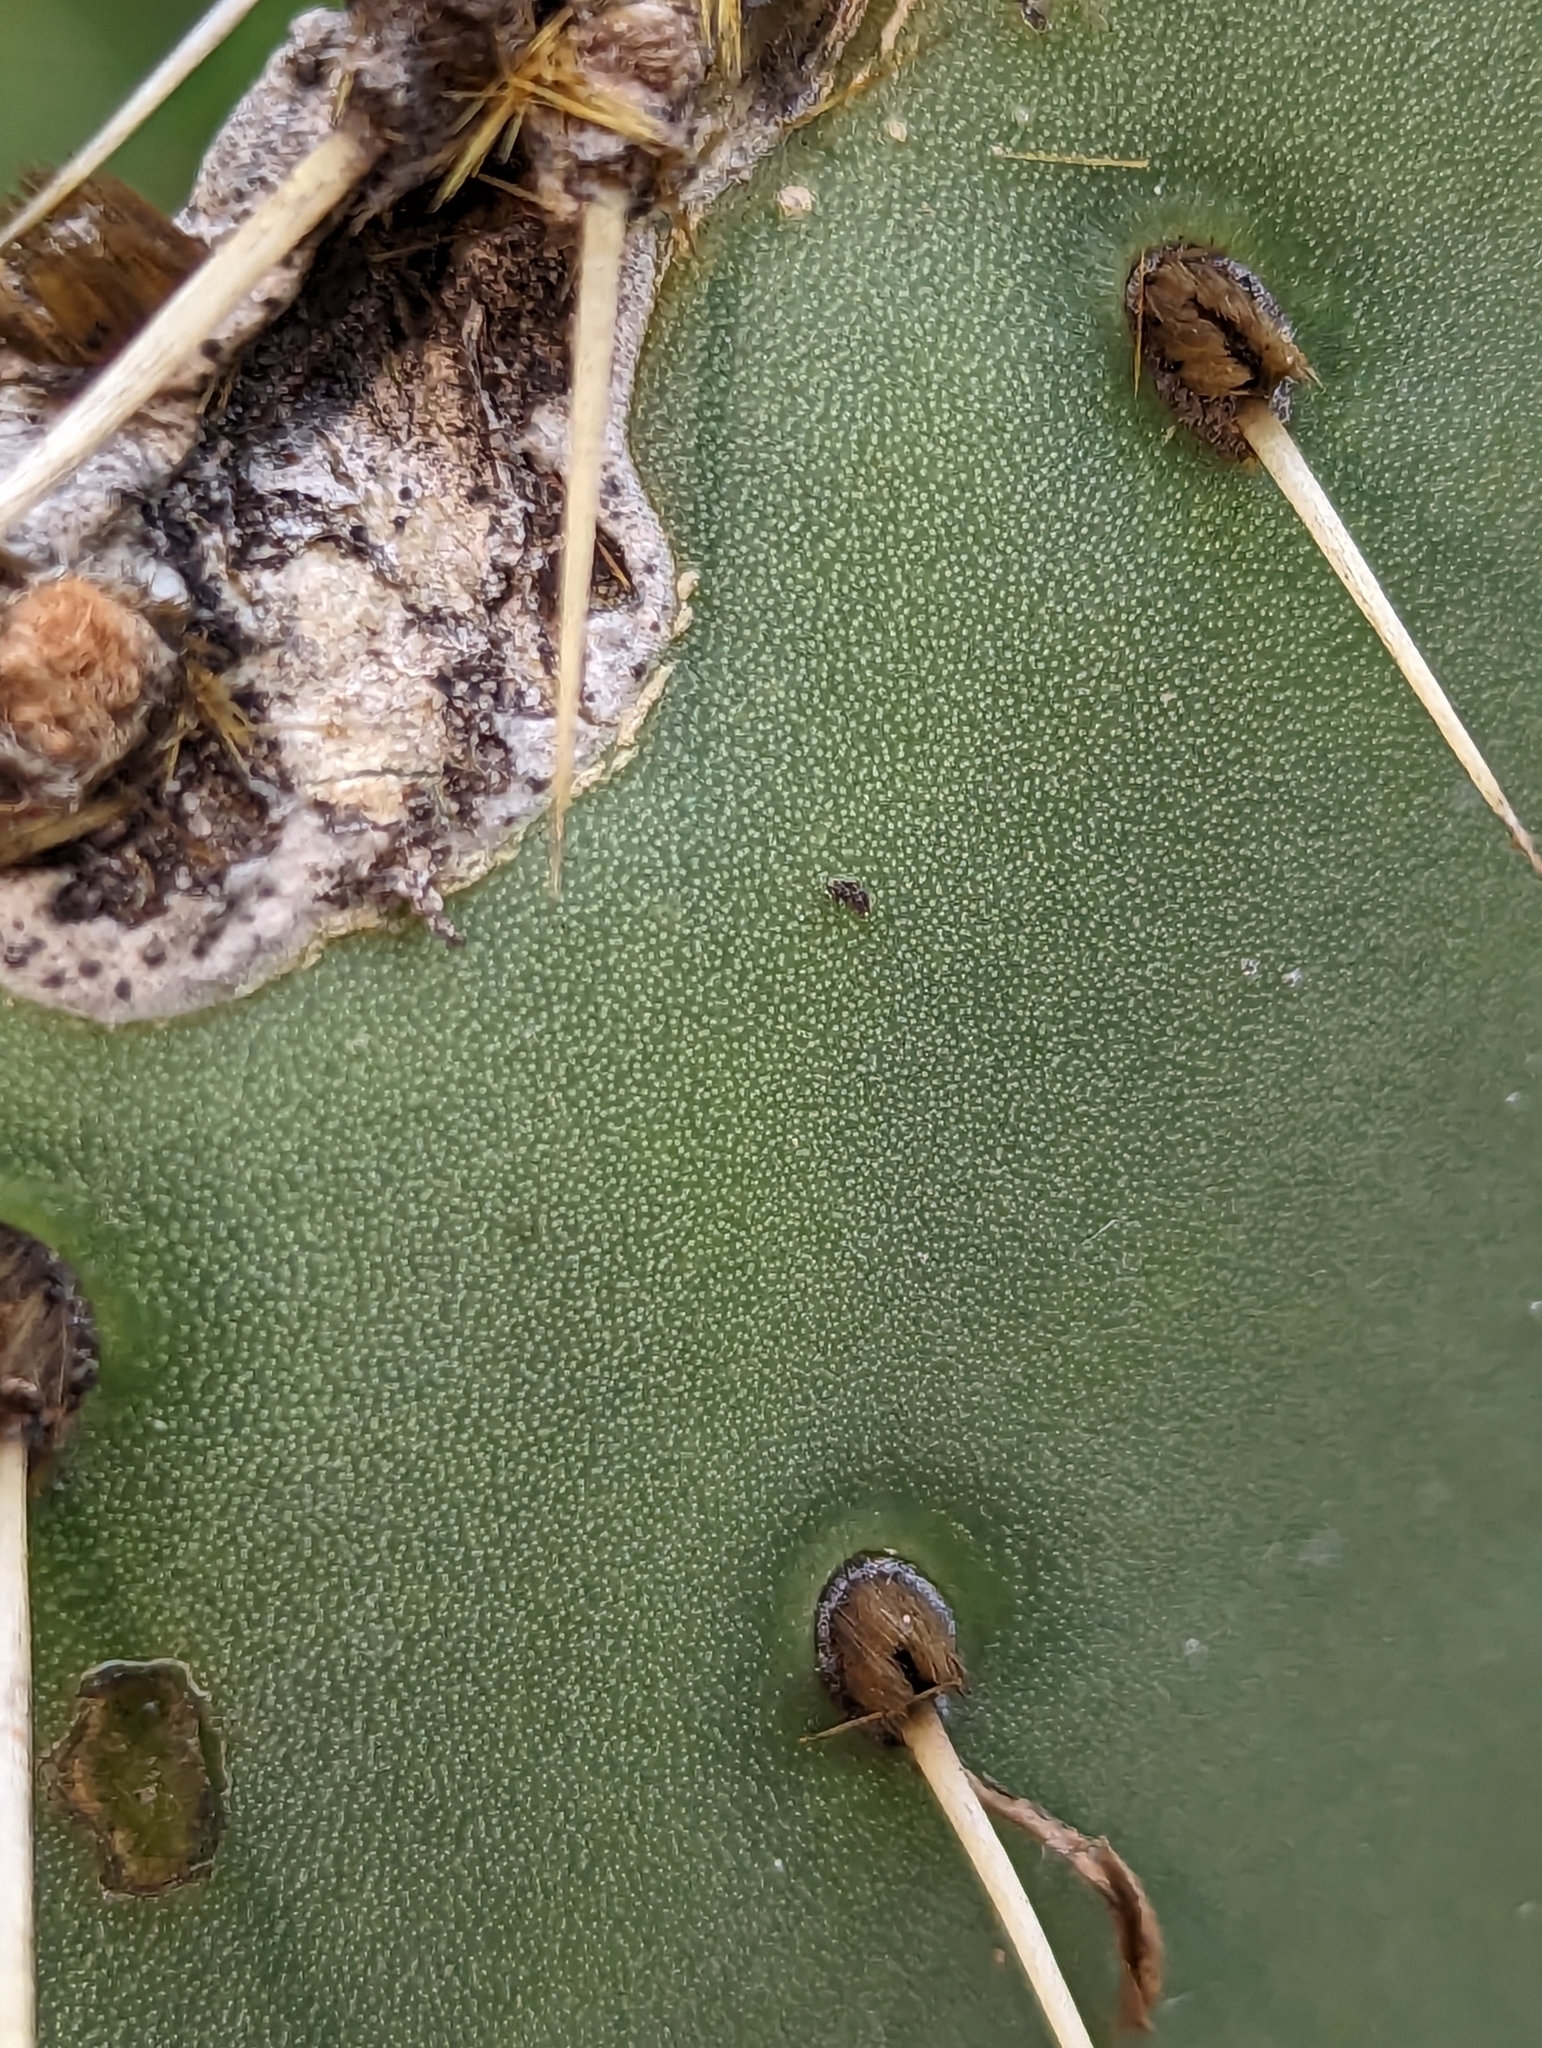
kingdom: Plantae
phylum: Tracheophyta
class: Magnoliopsida
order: Caryophyllales
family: Cactaceae
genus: Opuntia
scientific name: Opuntia caboensis
